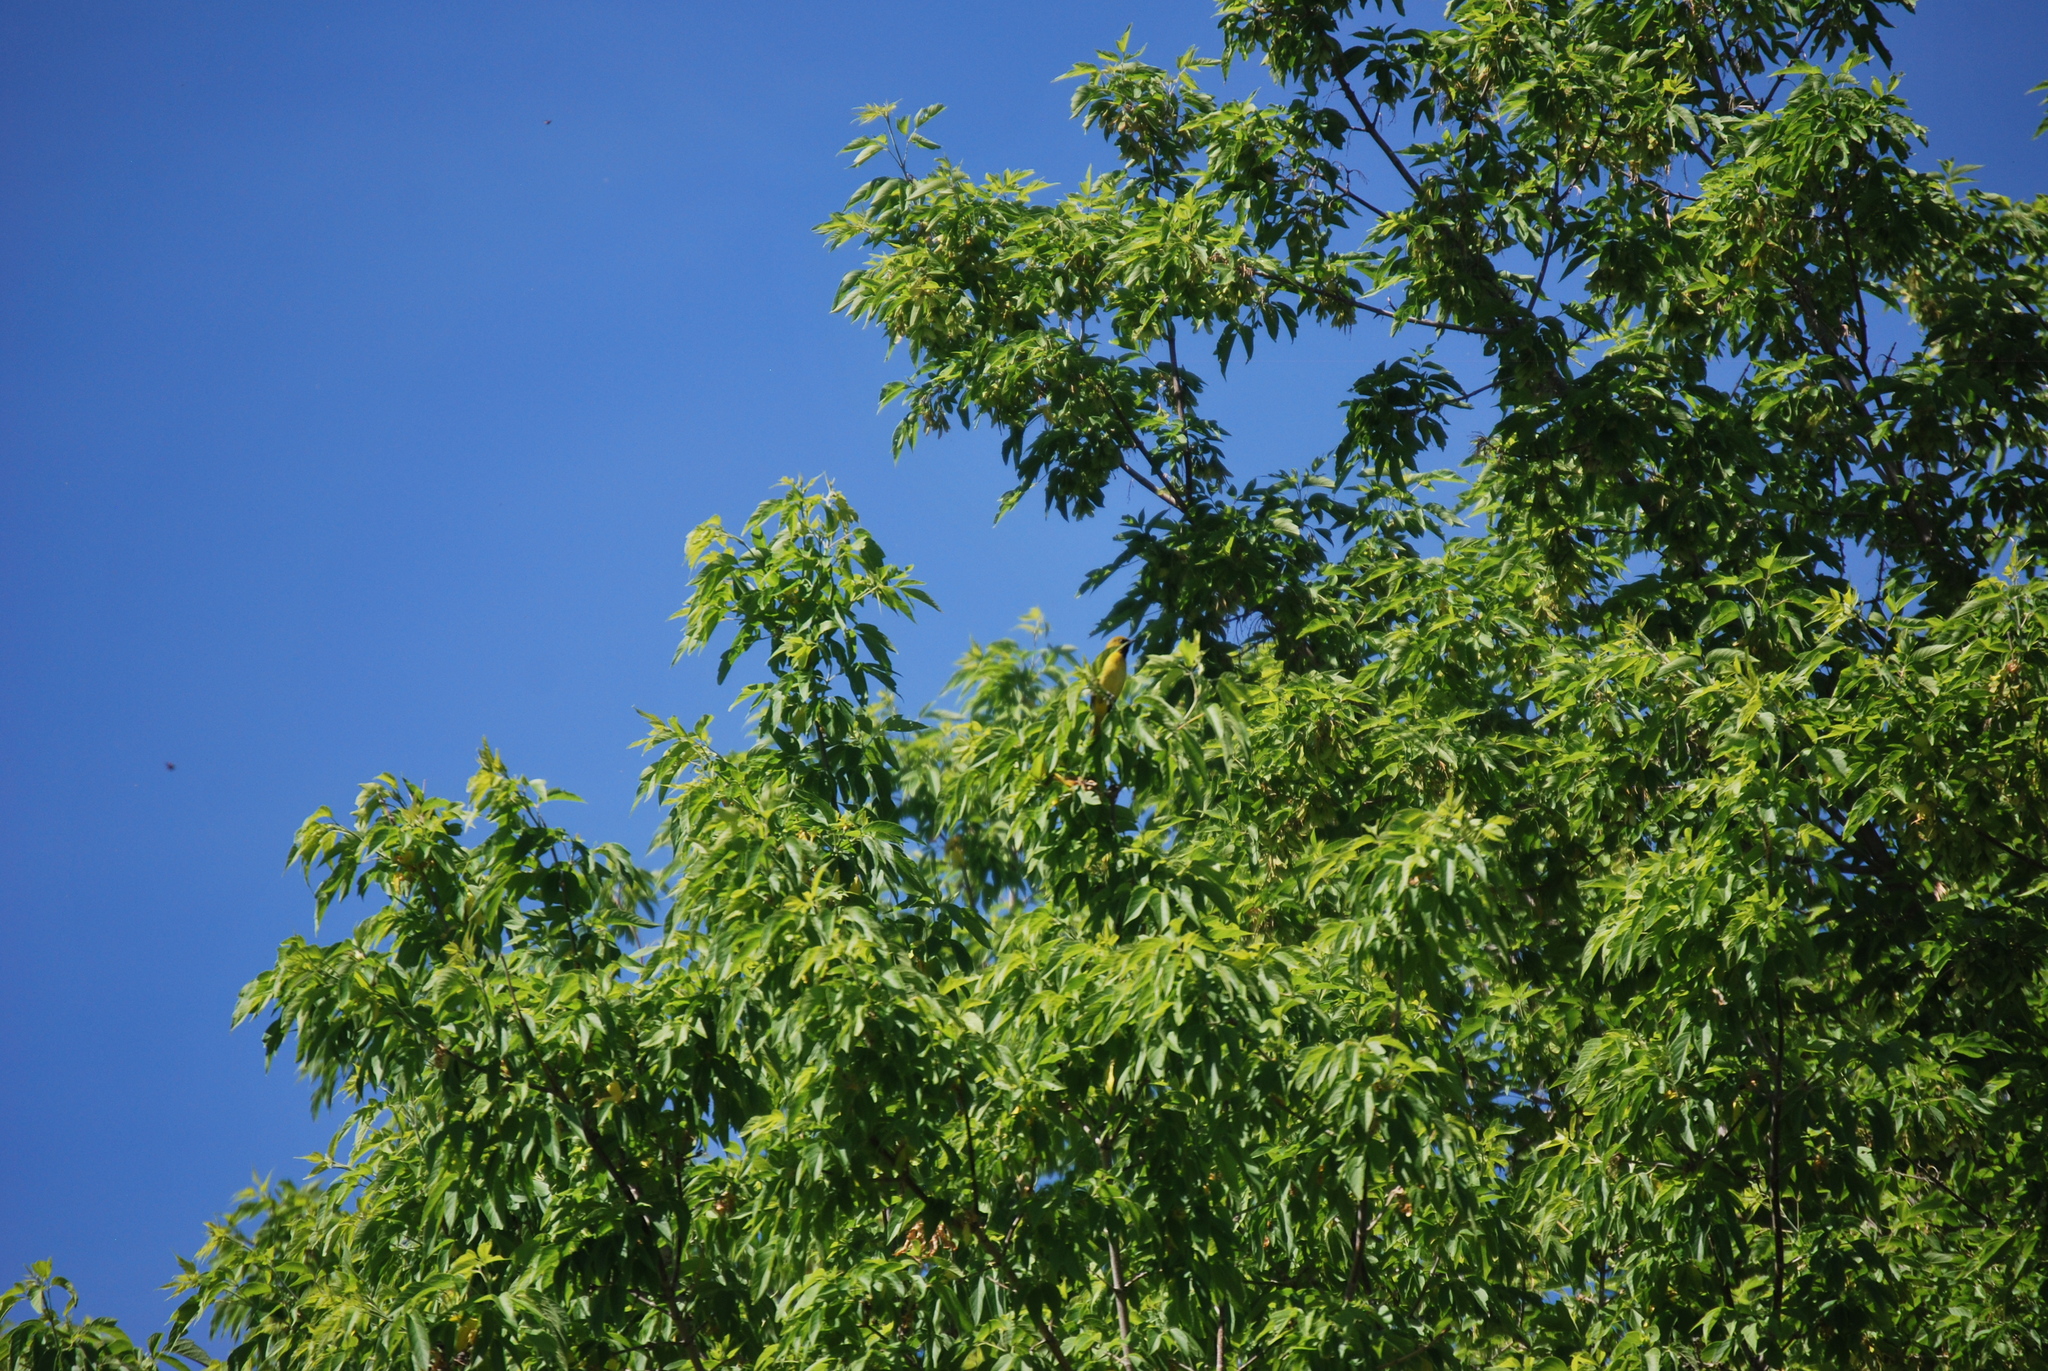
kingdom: Animalia
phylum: Chordata
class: Aves
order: Passeriformes
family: Icteridae
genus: Icterus
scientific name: Icterus spurius
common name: Orchard oriole
